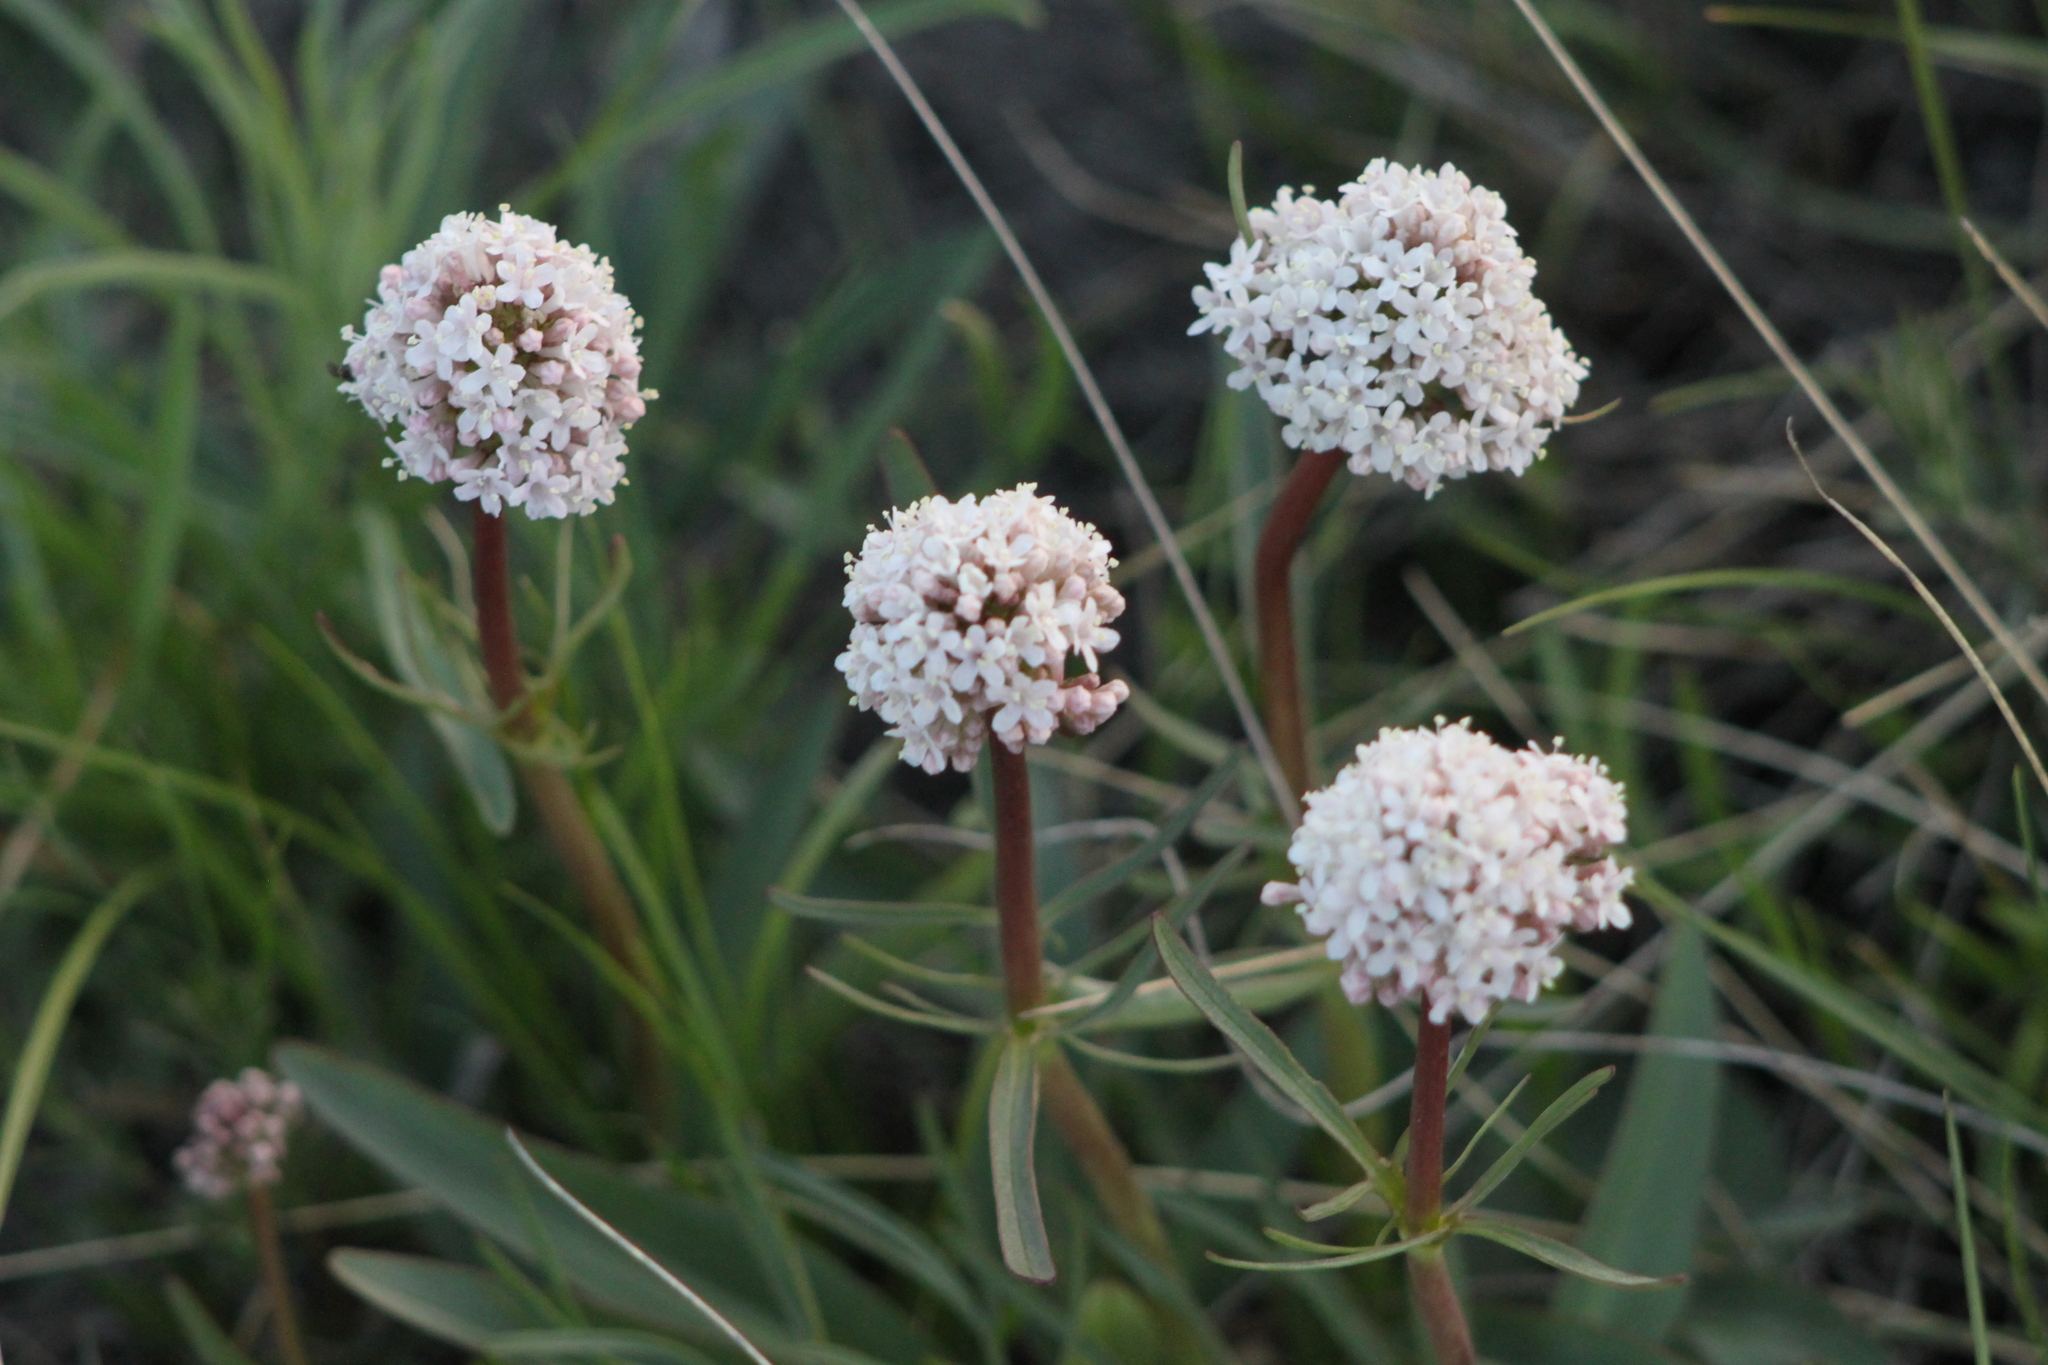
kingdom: Plantae
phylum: Tracheophyta
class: Magnoliopsida
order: Dipsacales
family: Caprifoliaceae
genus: Valeriana
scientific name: Valeriana tuberosa
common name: Tuberous valerian
